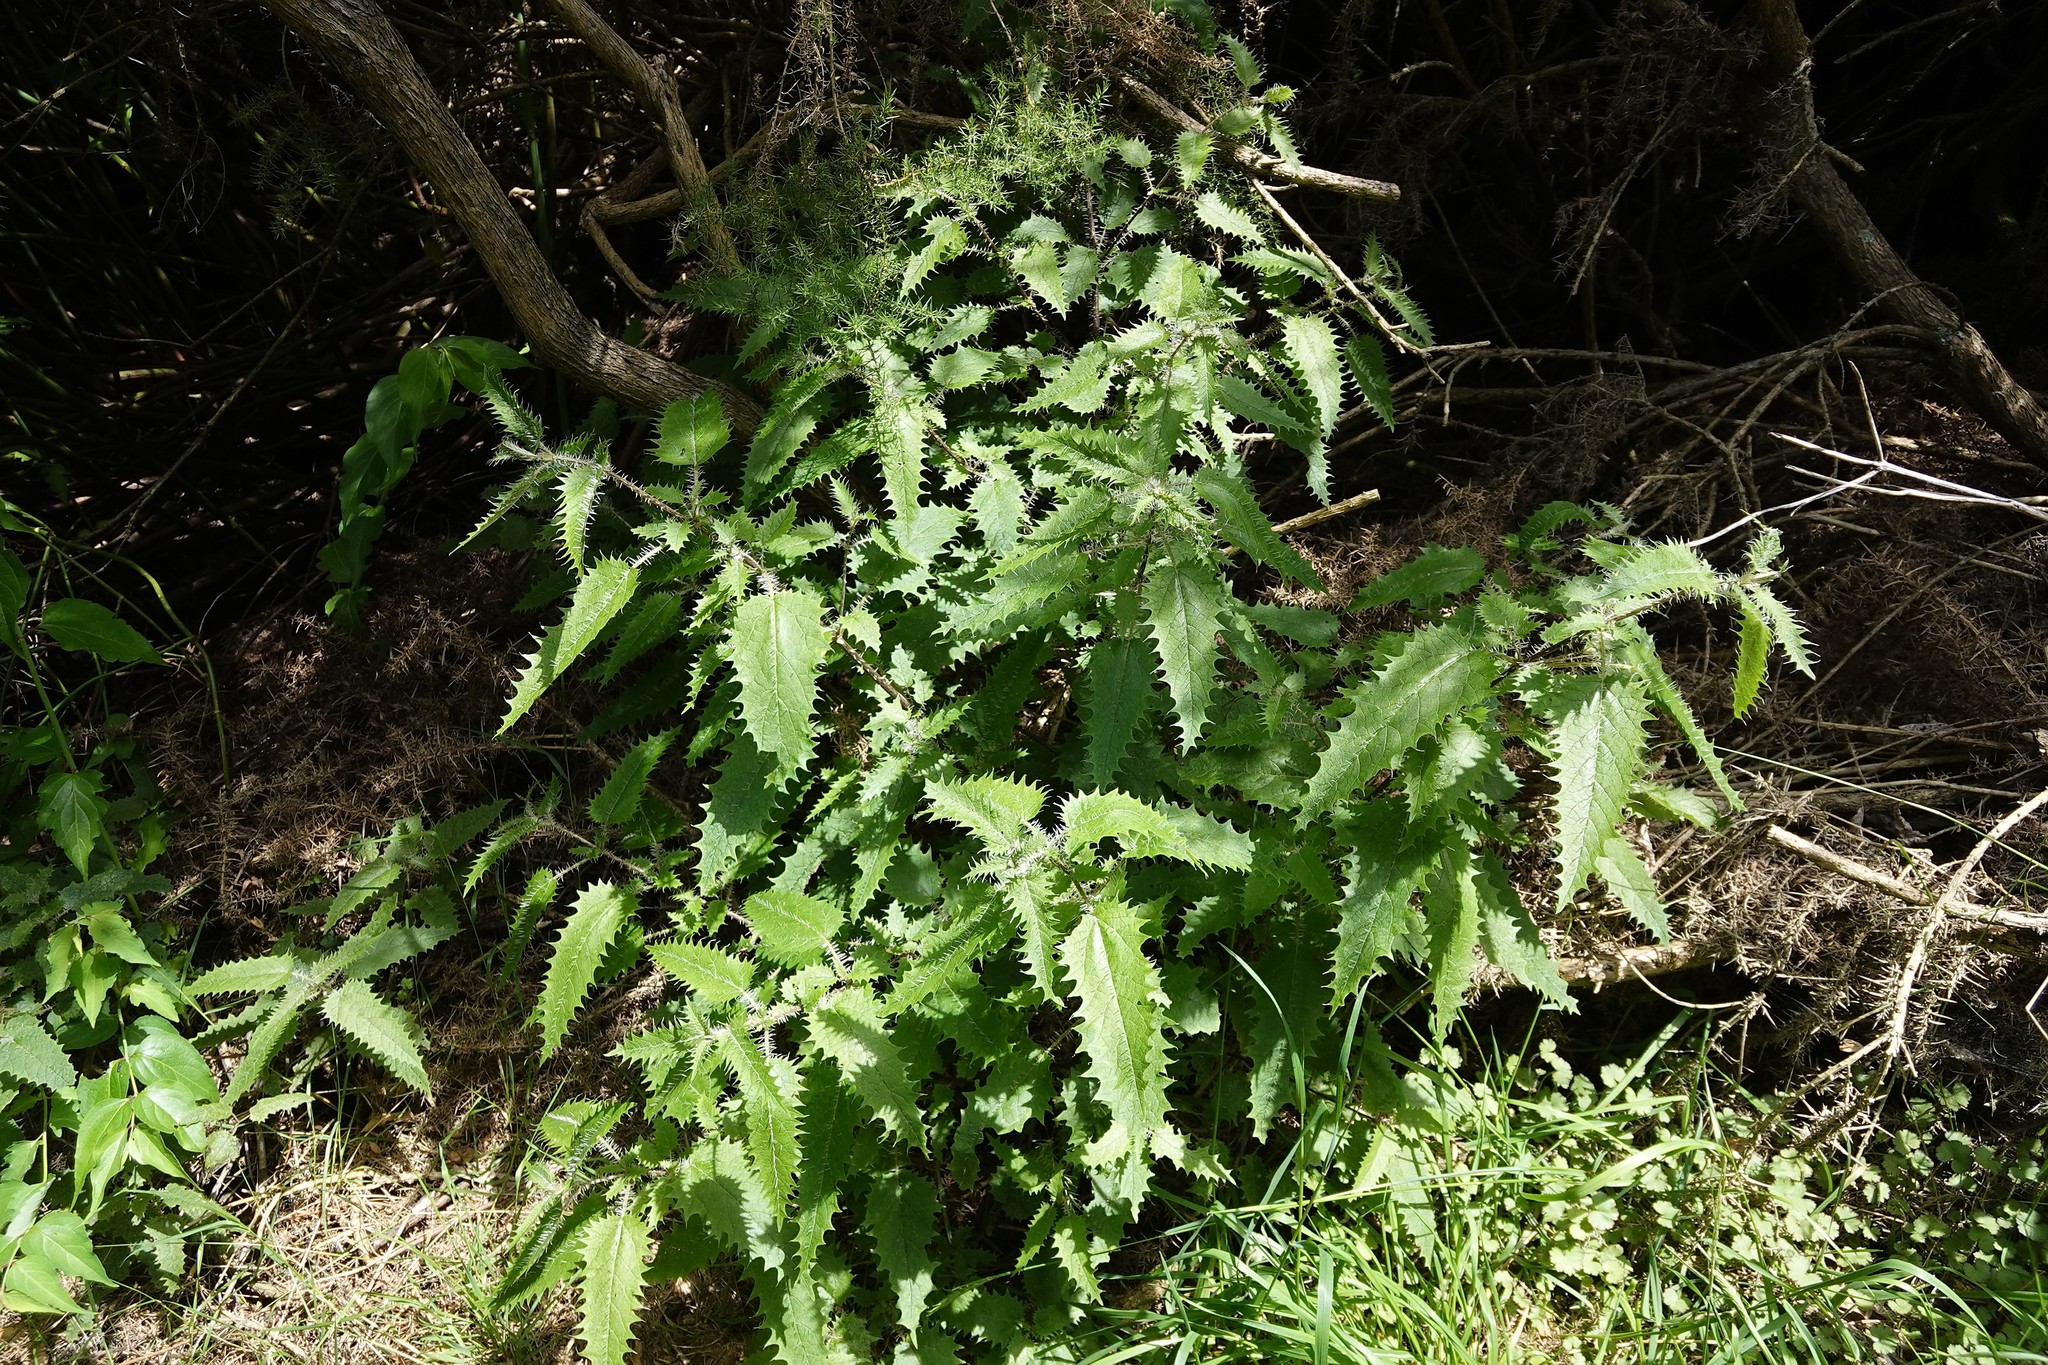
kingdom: Plantae
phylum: Tracheophyta
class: Magnoliopsida
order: Rosales
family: Urticaceae
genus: Urtica
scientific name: Urtica ferox
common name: Tree nettle
